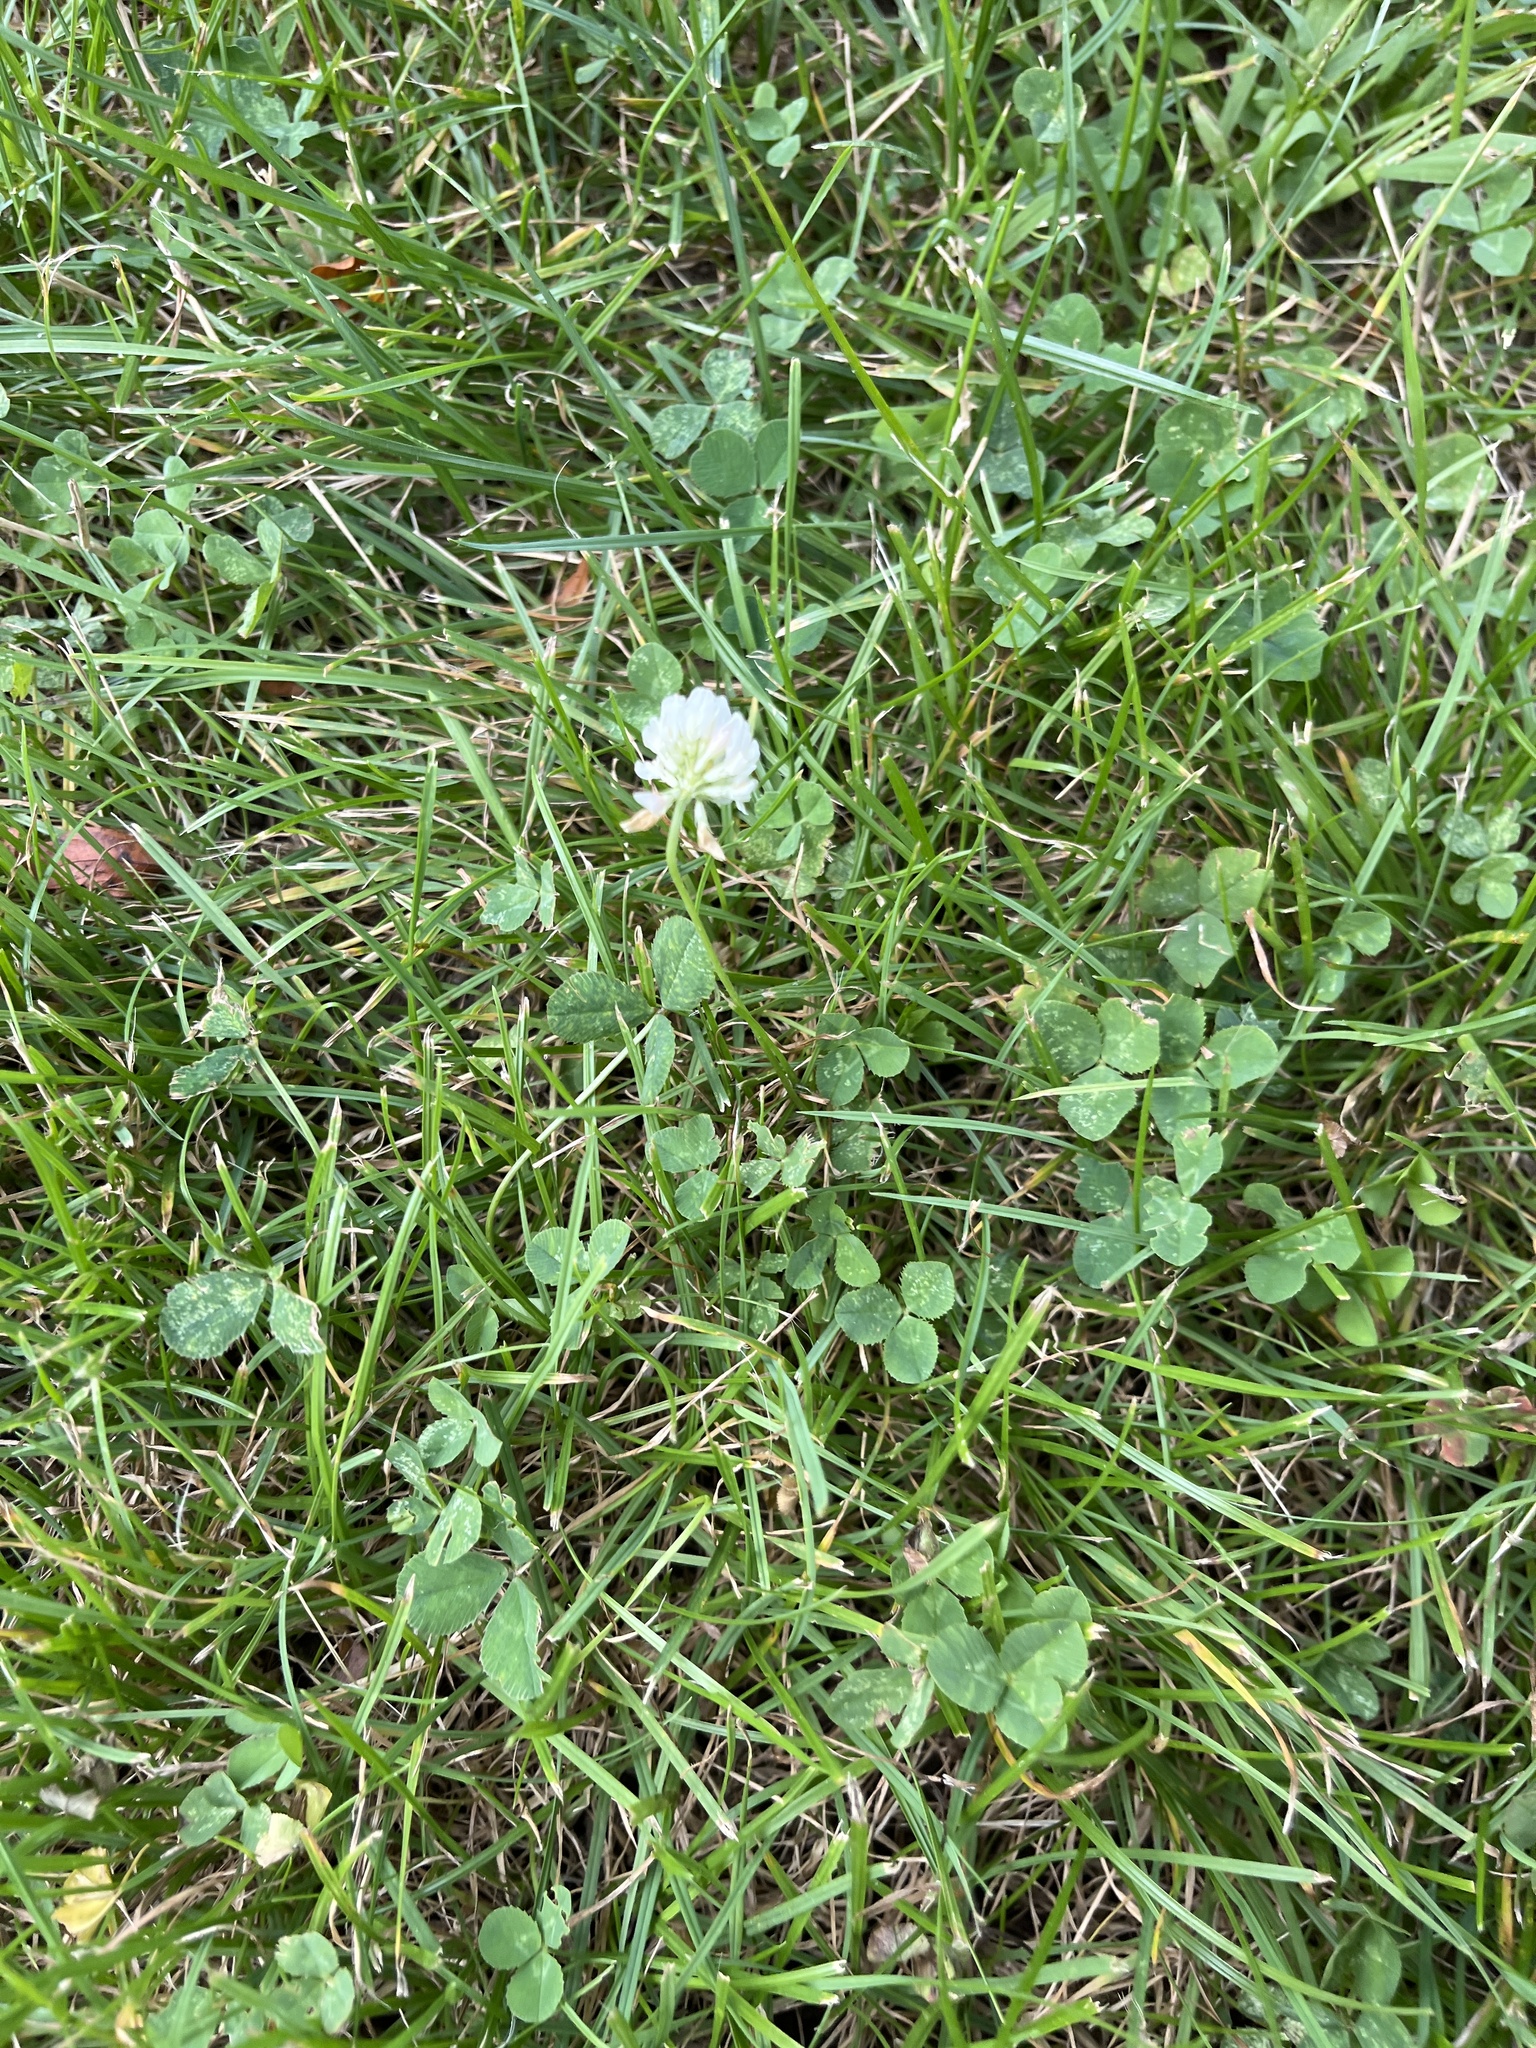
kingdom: Plantae
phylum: Tracheophyta
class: Magnoliopsida
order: Fabales
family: Fabaceae
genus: Trifolium
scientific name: Trifolium repens
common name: White clover
